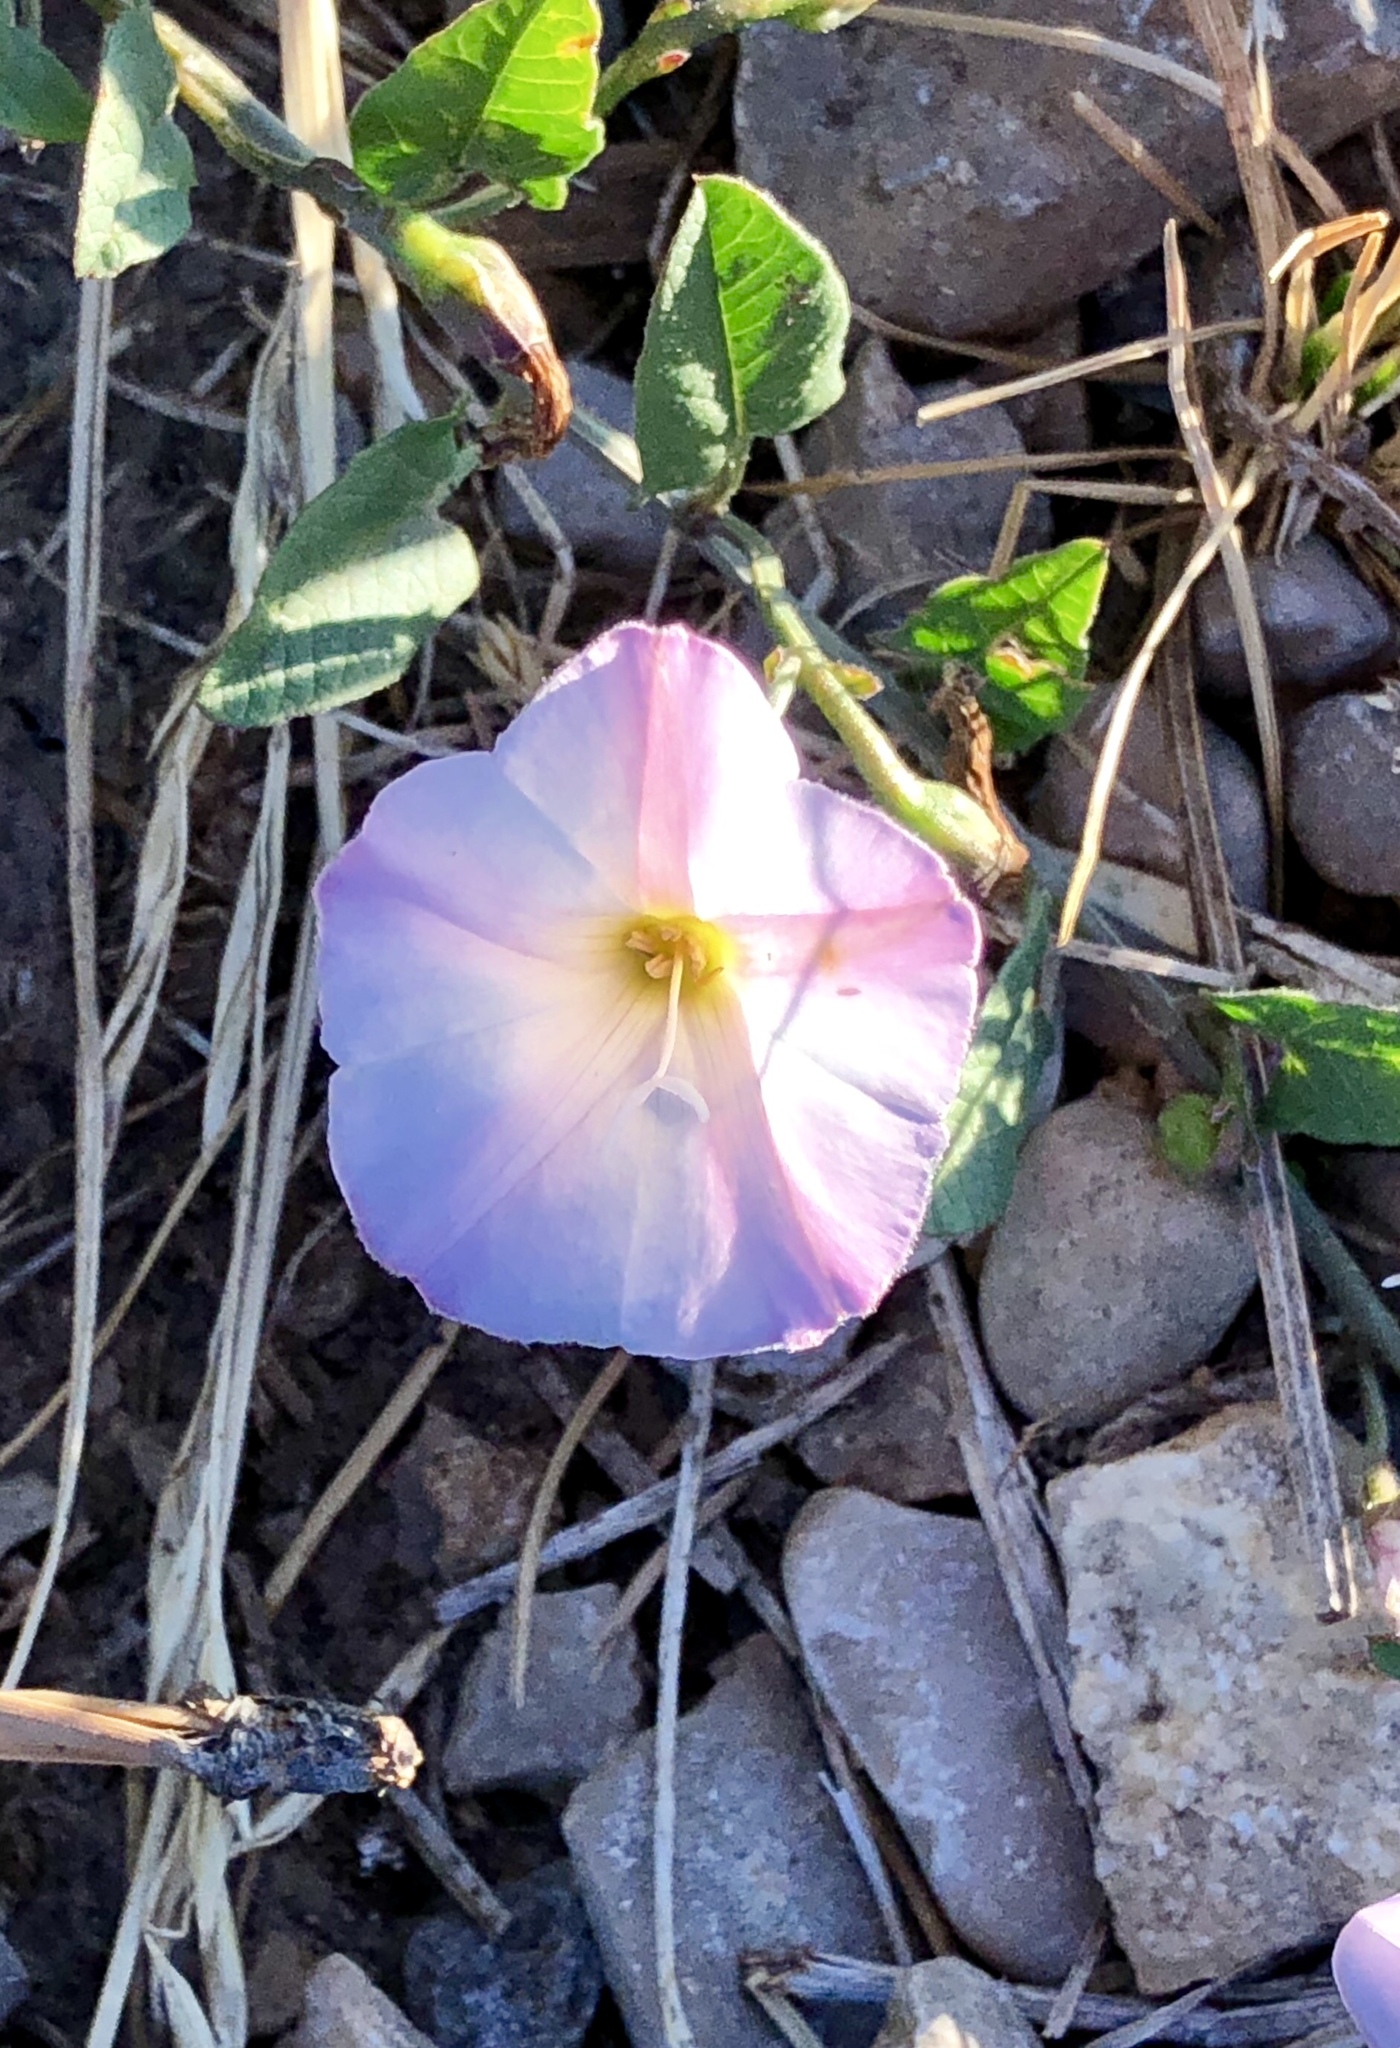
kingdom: Plantae
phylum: Tracheophyta
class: Magnoliopsida
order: Solanales
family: Convolvulaceae
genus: Convolvulus
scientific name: Convolvulus arvensis
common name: Field bindweed
